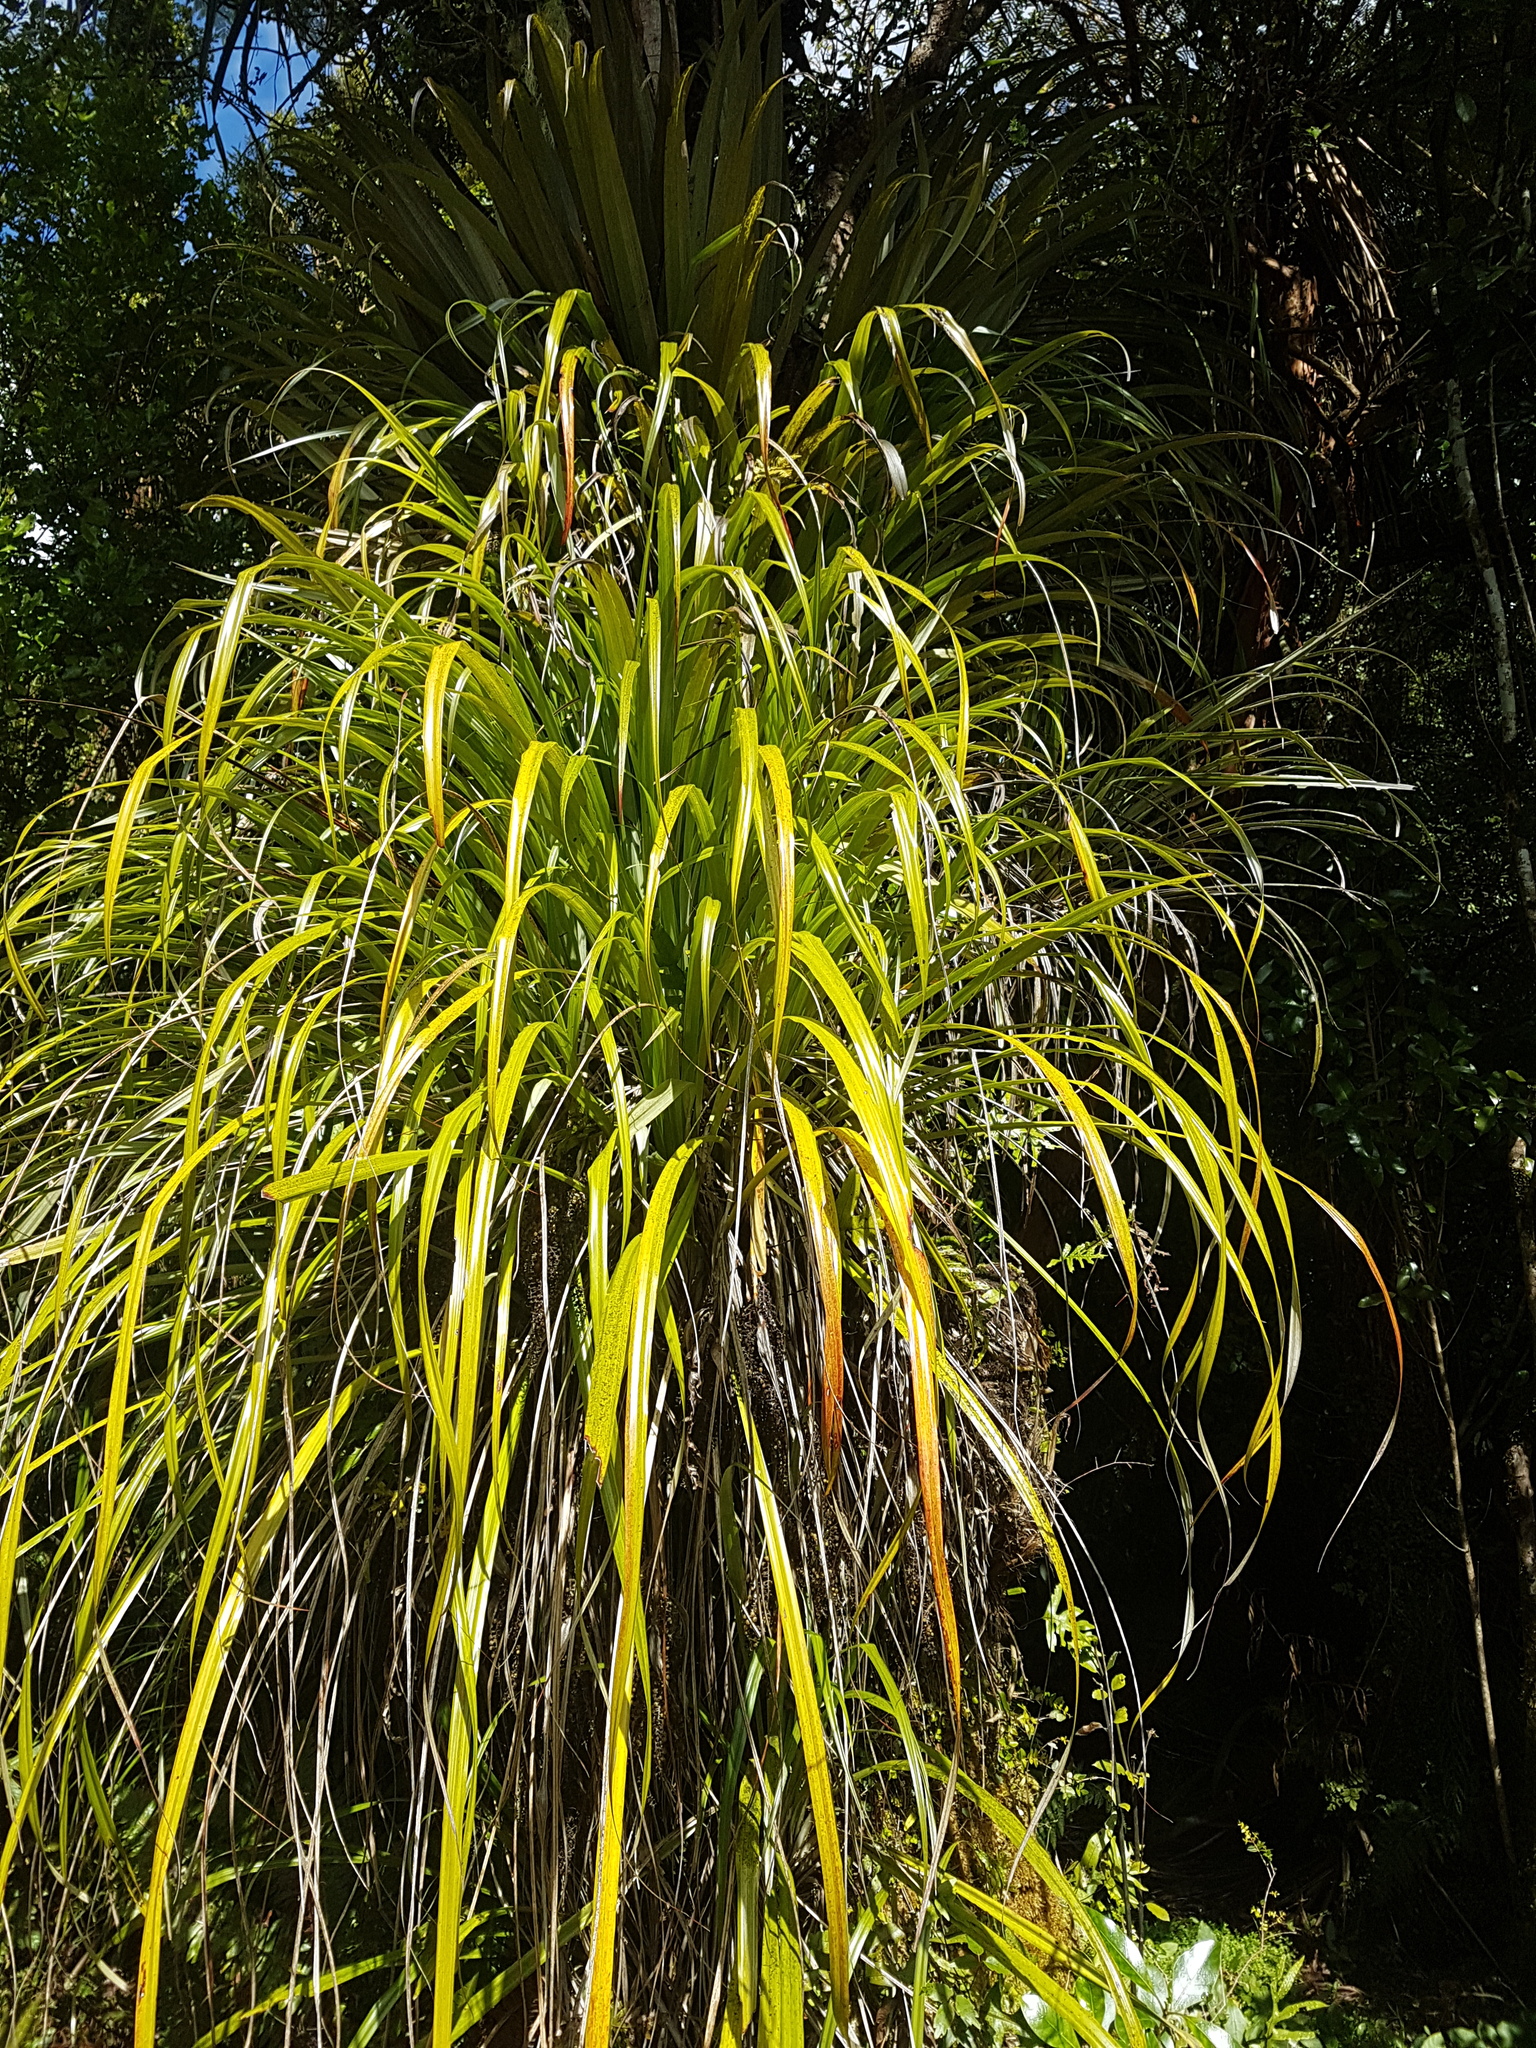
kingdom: Plantae
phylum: Tracheophyta
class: Liliopsida
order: Asparagales
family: Asteliaceae
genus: Astelia
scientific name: Astelia trinervia
